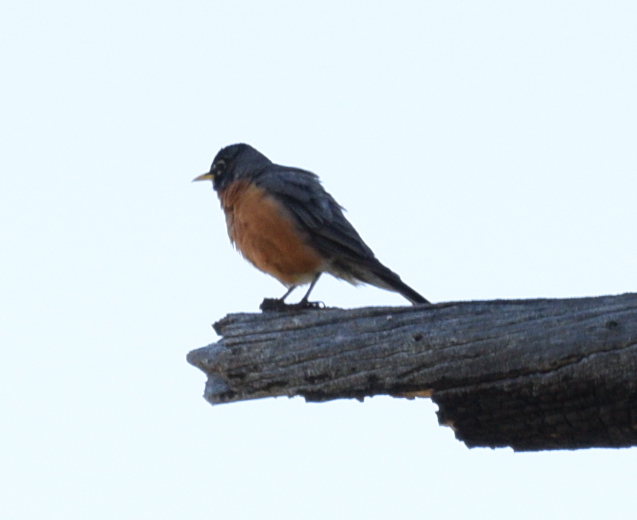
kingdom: Animalia
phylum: Chordata
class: Aves
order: Passeriformes
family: Turdidae
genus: Turdus
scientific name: Turdus migratorius
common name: American robin
